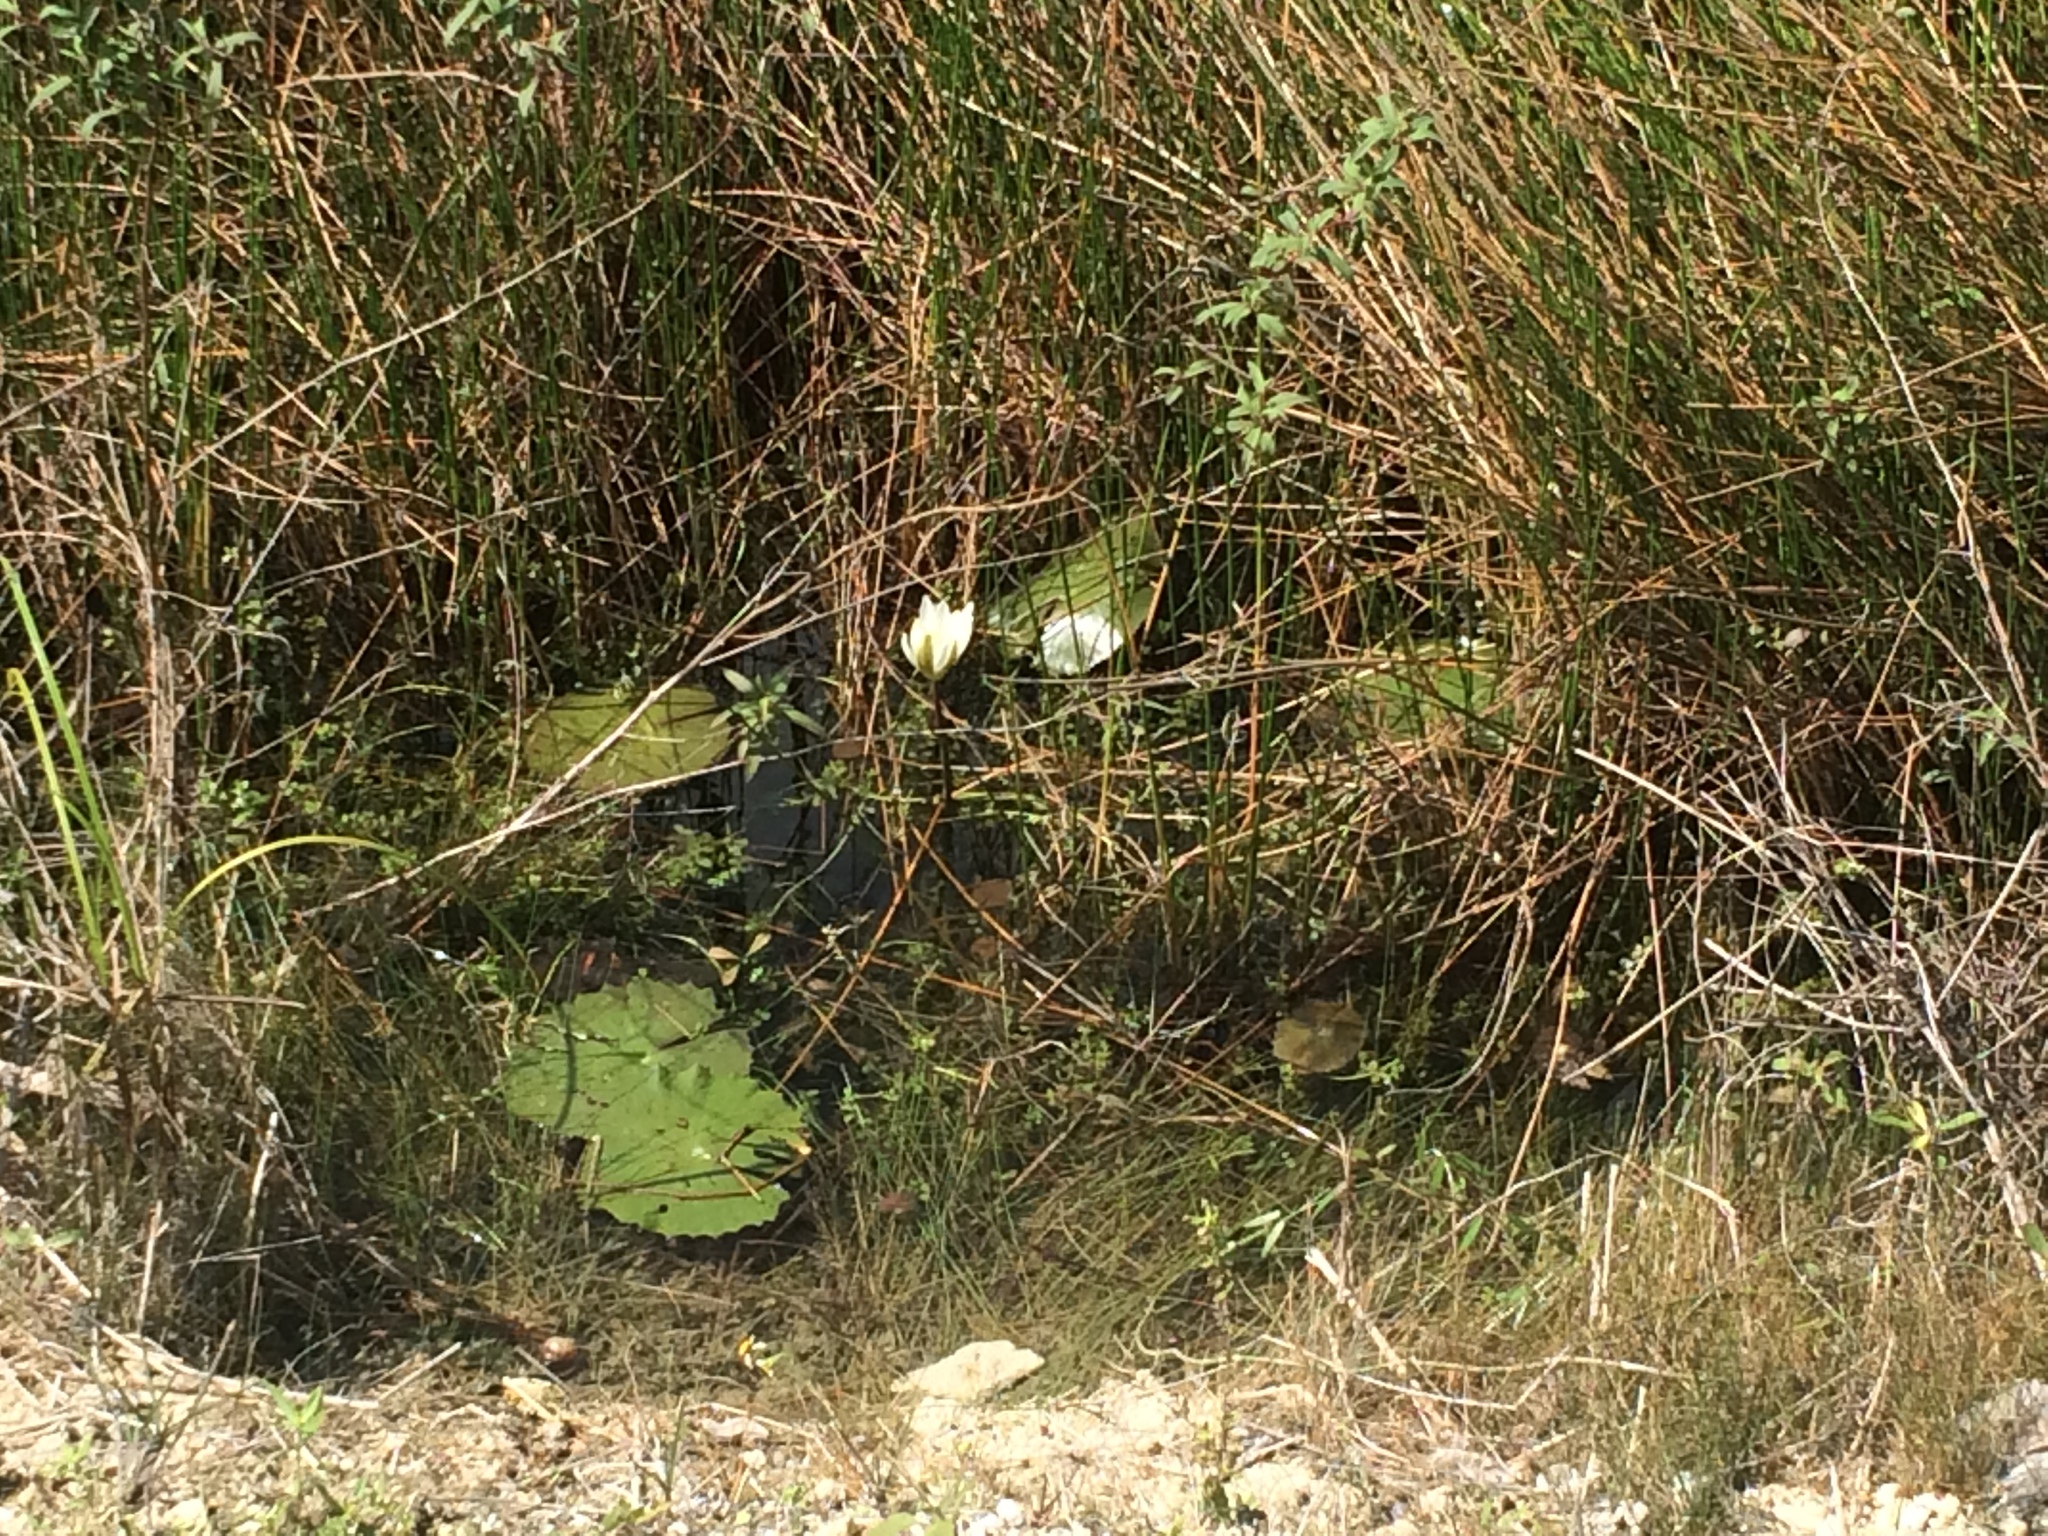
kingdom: Plantae
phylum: Tracheophyta
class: Magnoliopsida
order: Nymphaeales
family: Nymphaeaceae
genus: Nymphaea
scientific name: Nymphaea ampla
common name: Dotleaf waterlily
